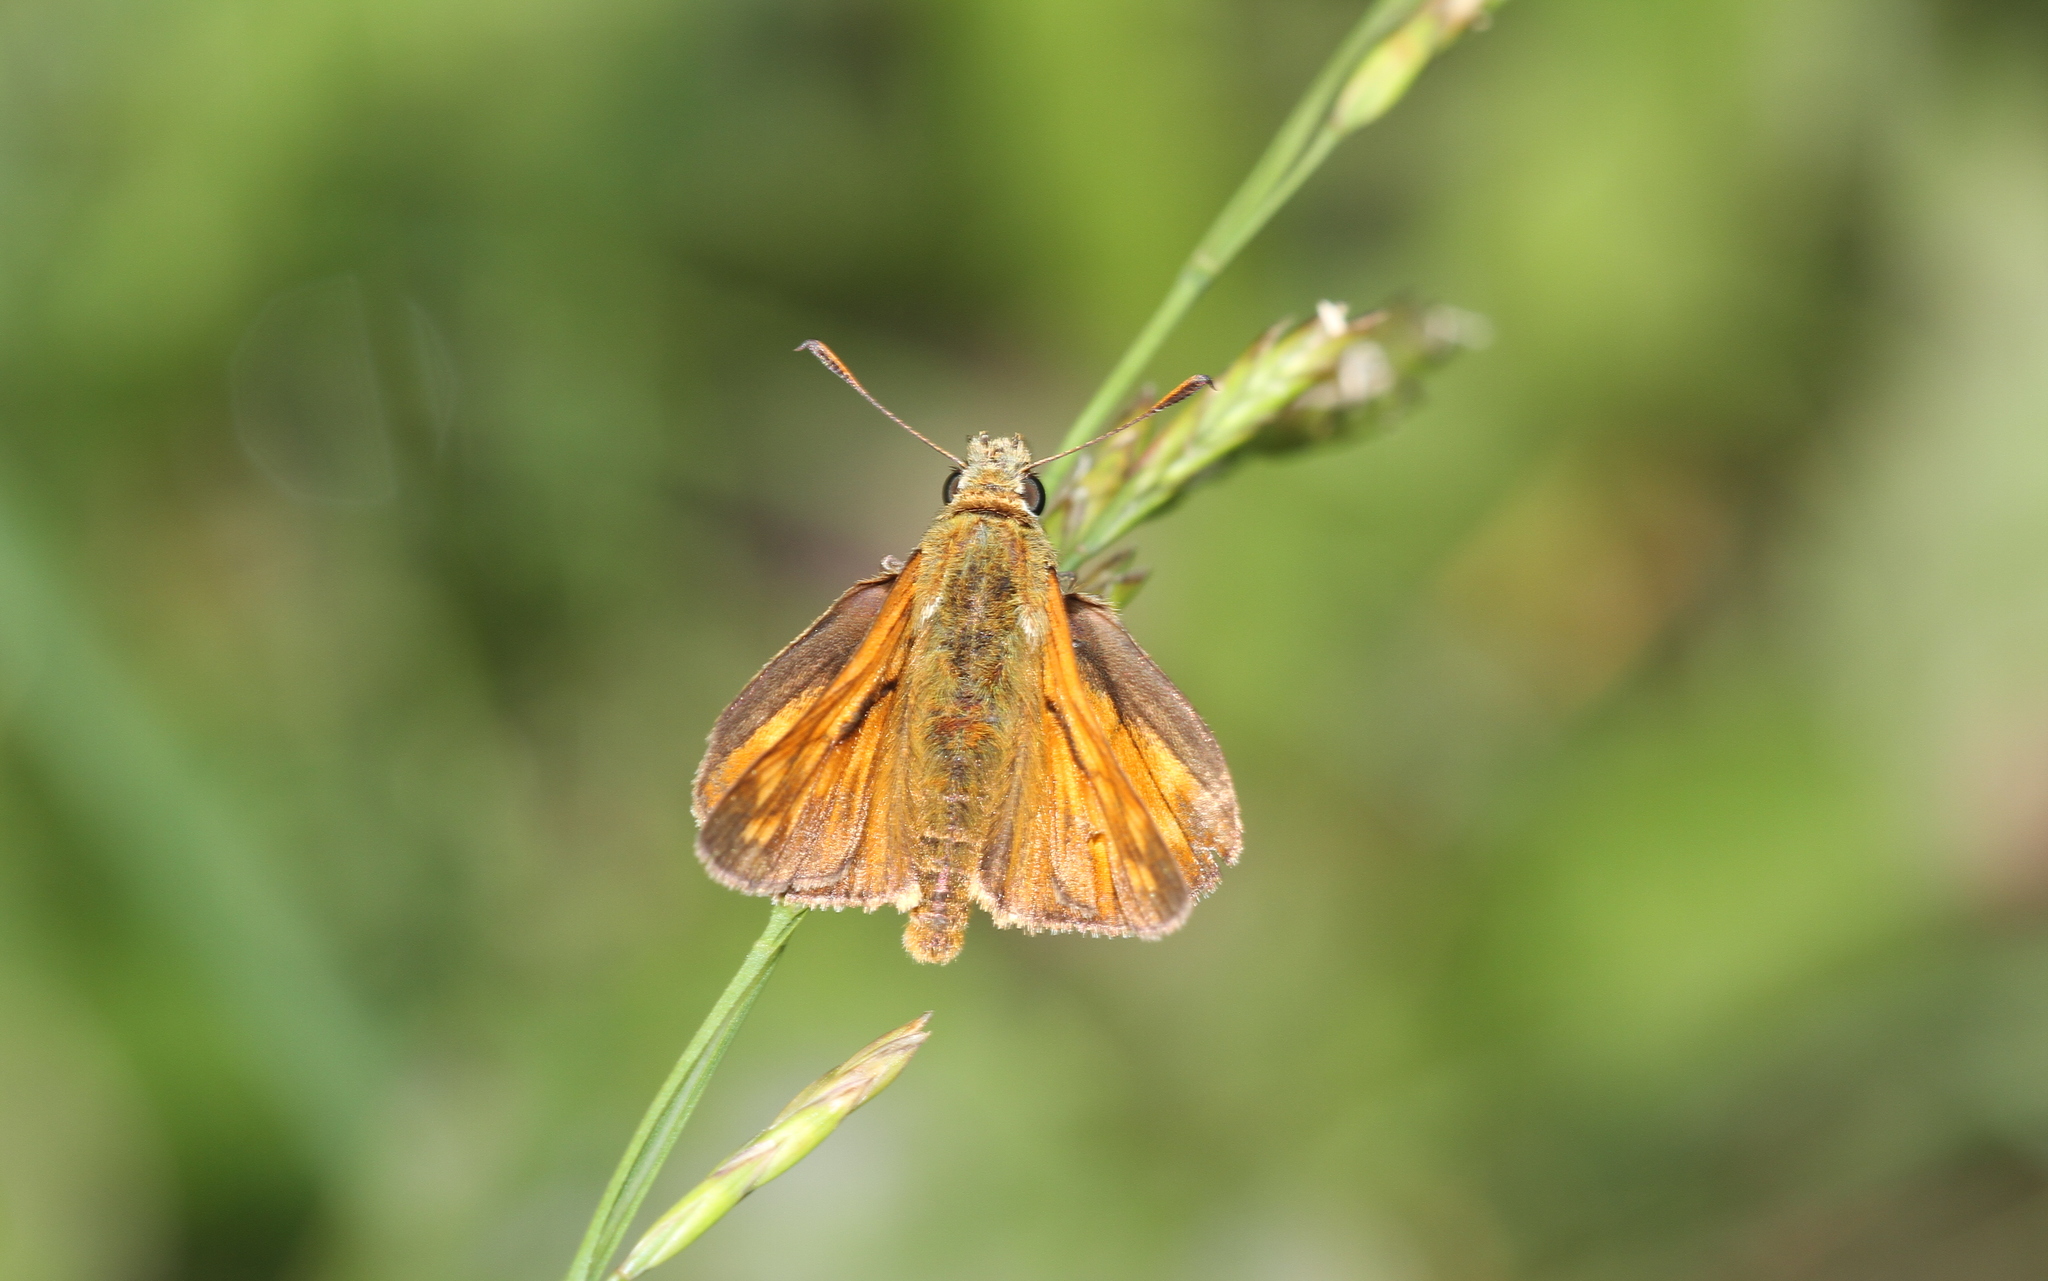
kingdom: Animalia
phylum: Arthropoda
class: Insecta
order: Lepidoptera
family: Hesperiidae
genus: Ochlodes
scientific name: Ochlodes venata
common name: Large skipper
